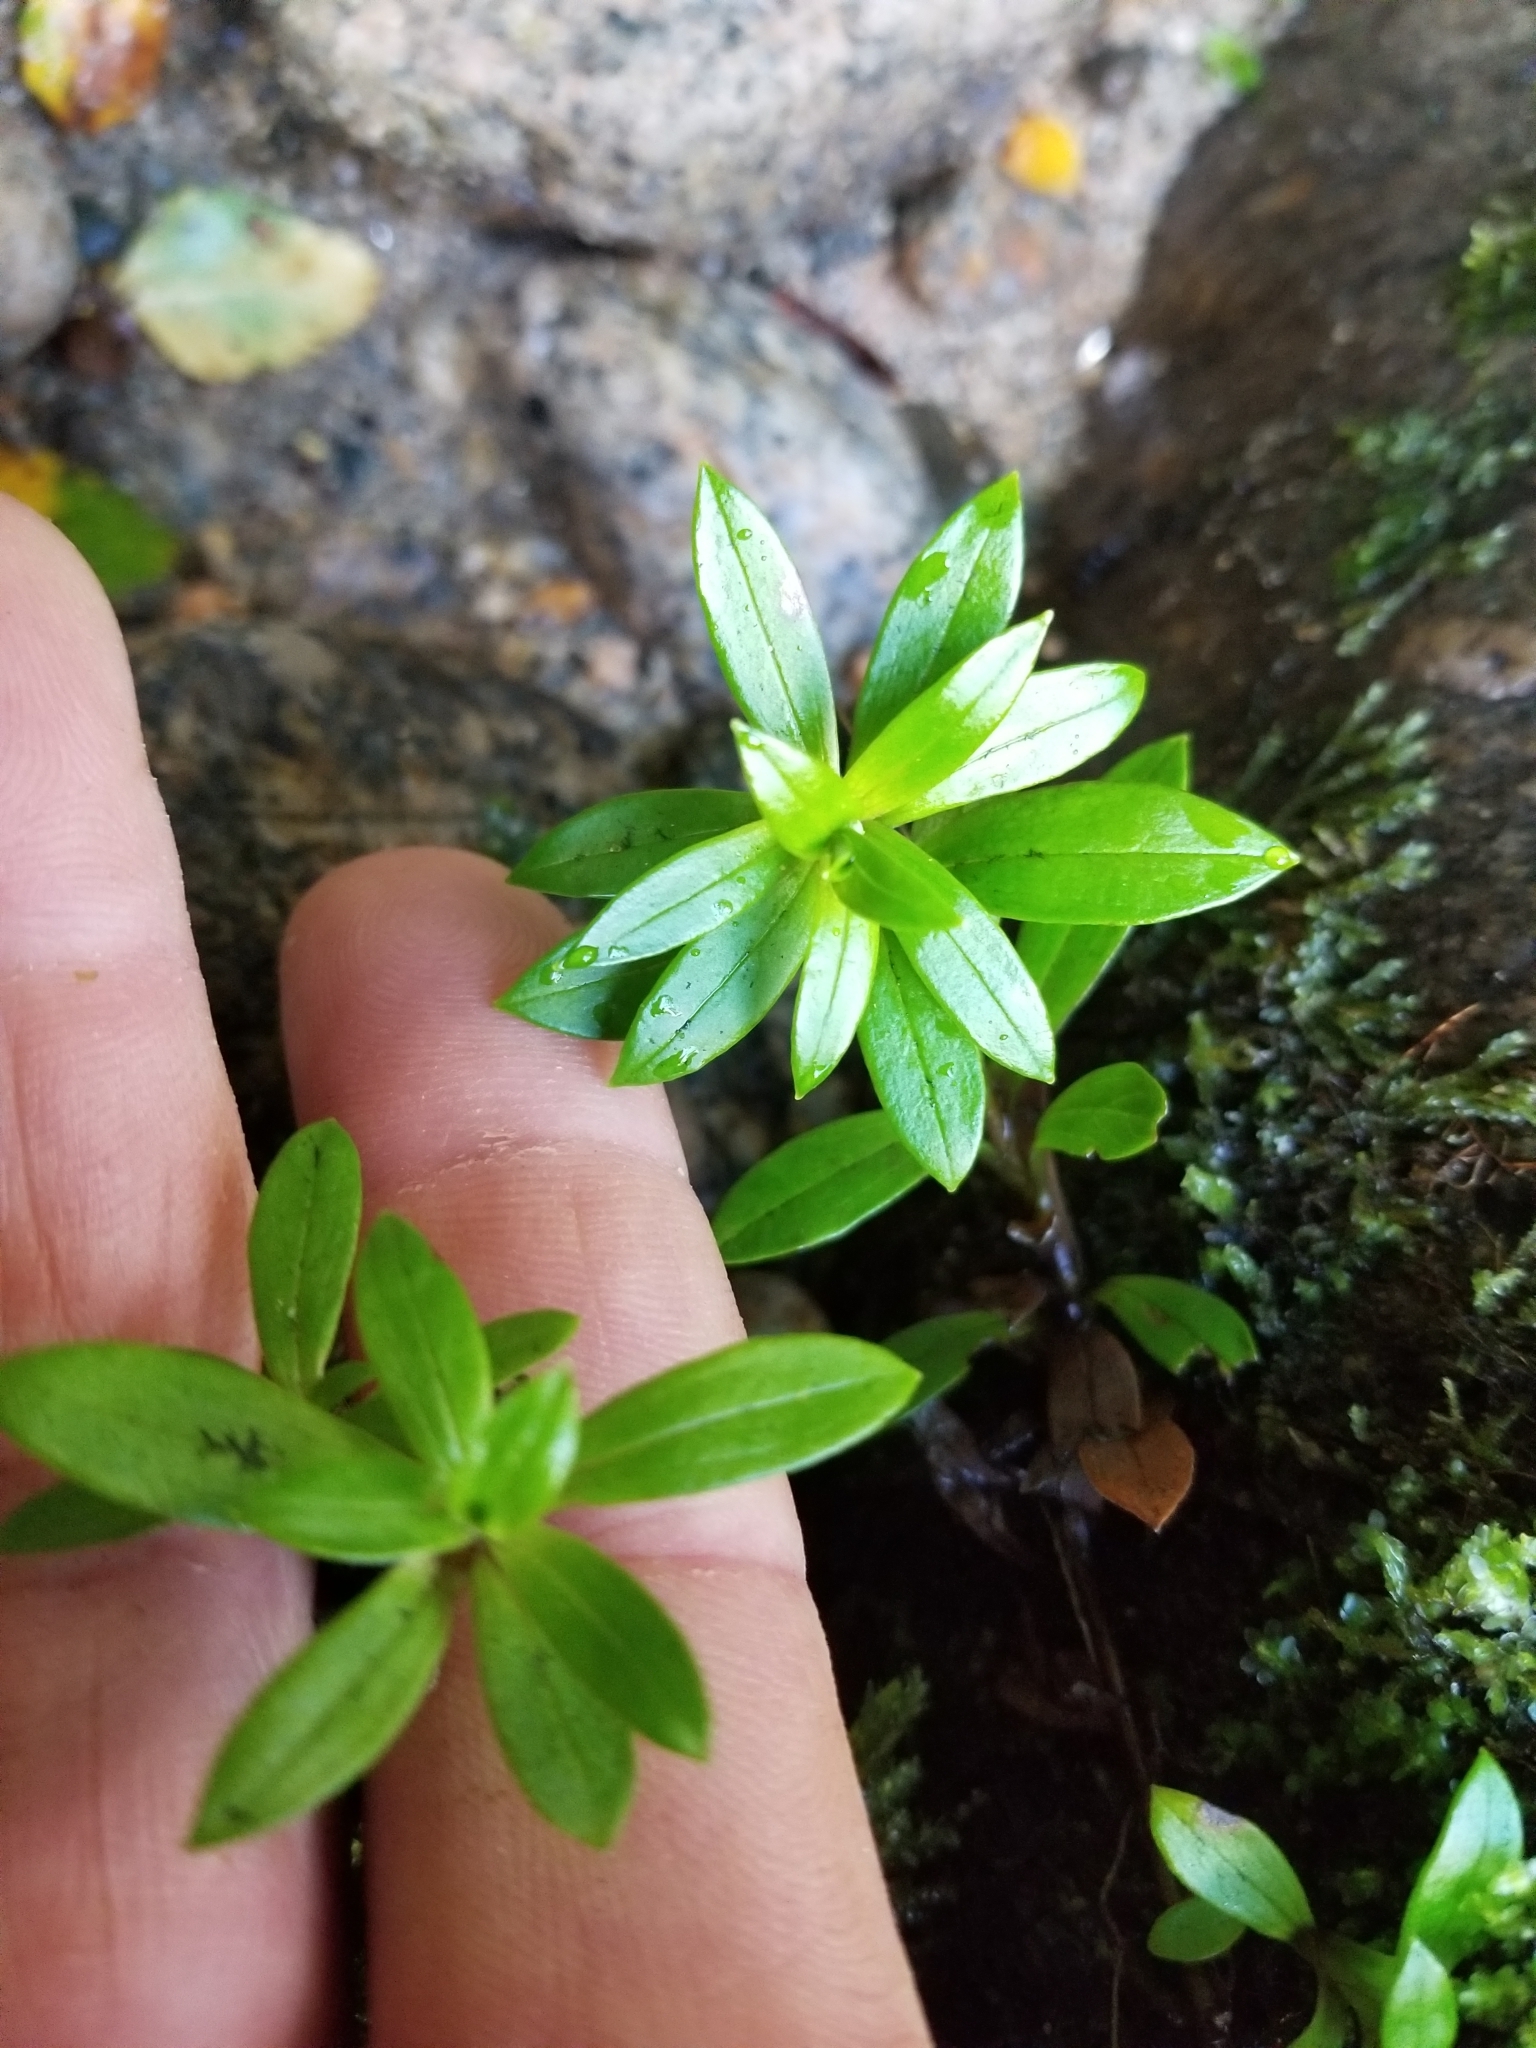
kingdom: Plantae
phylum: Tracheophyta
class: Magnoliopsida
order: Asterales
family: Asteraceae
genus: Anaphalioides
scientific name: Anaphalioides trinervis
